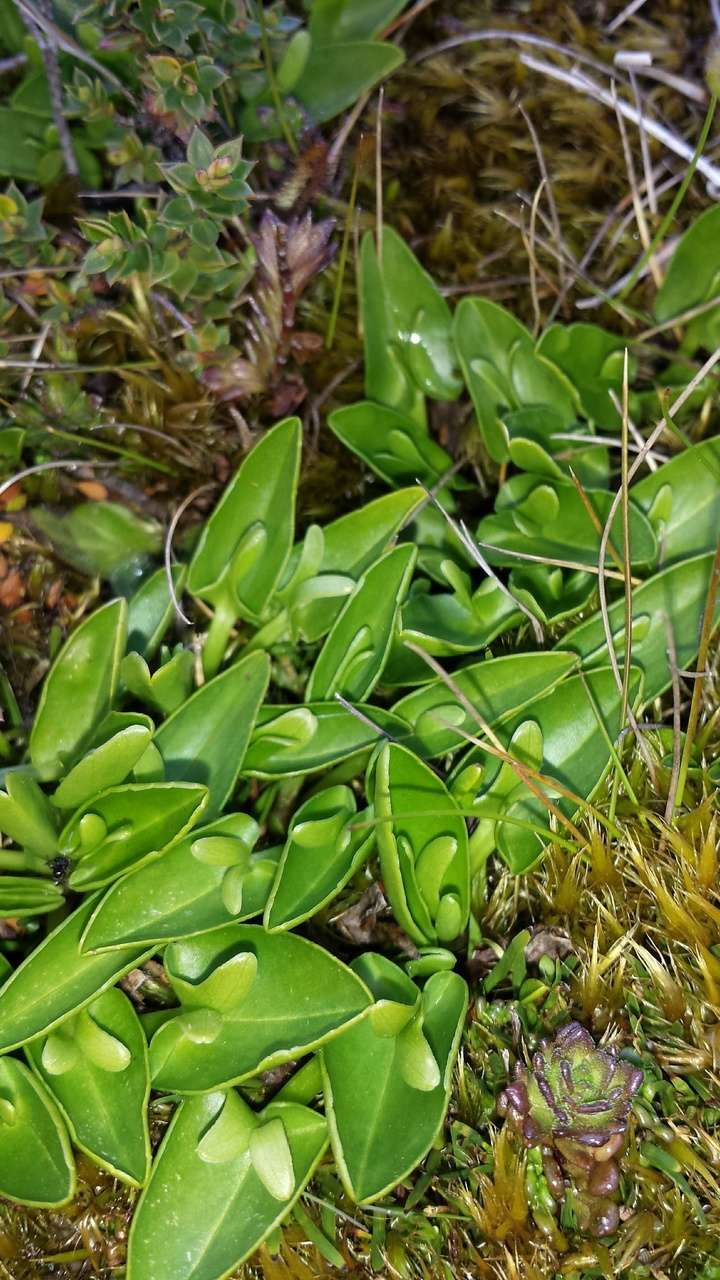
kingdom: Plantae
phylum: Tracheophyta
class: Magnoliopsida
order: Ranunculales
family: Ranunculaceae
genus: Caltha
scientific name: Caltha introloba
